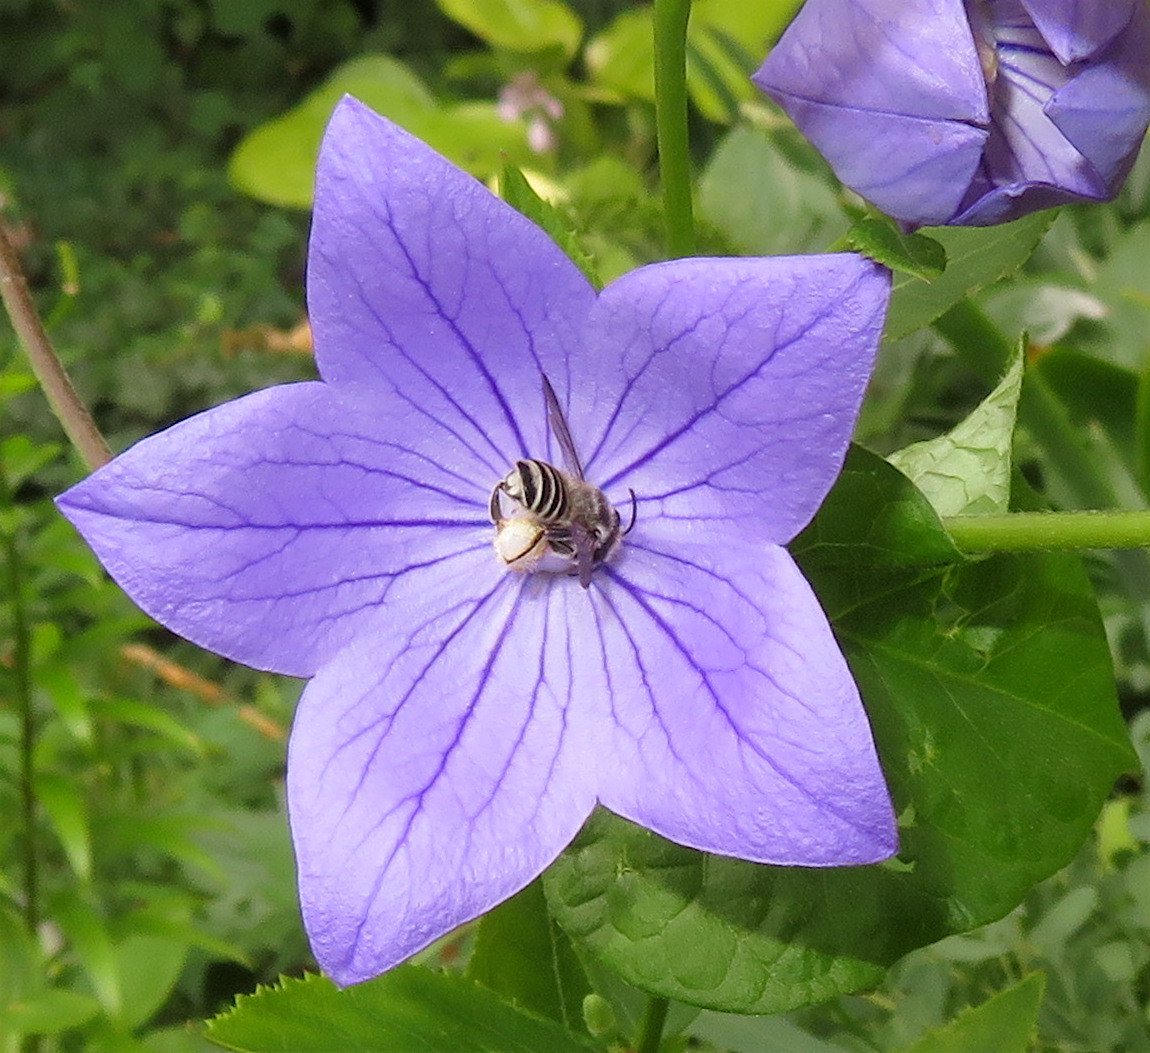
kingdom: Animalia
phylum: Arthropoda
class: Insecta
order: Hymenoptera
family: Megachilidae
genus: Megachile
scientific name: Megachile texana
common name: Texas leafcutter
